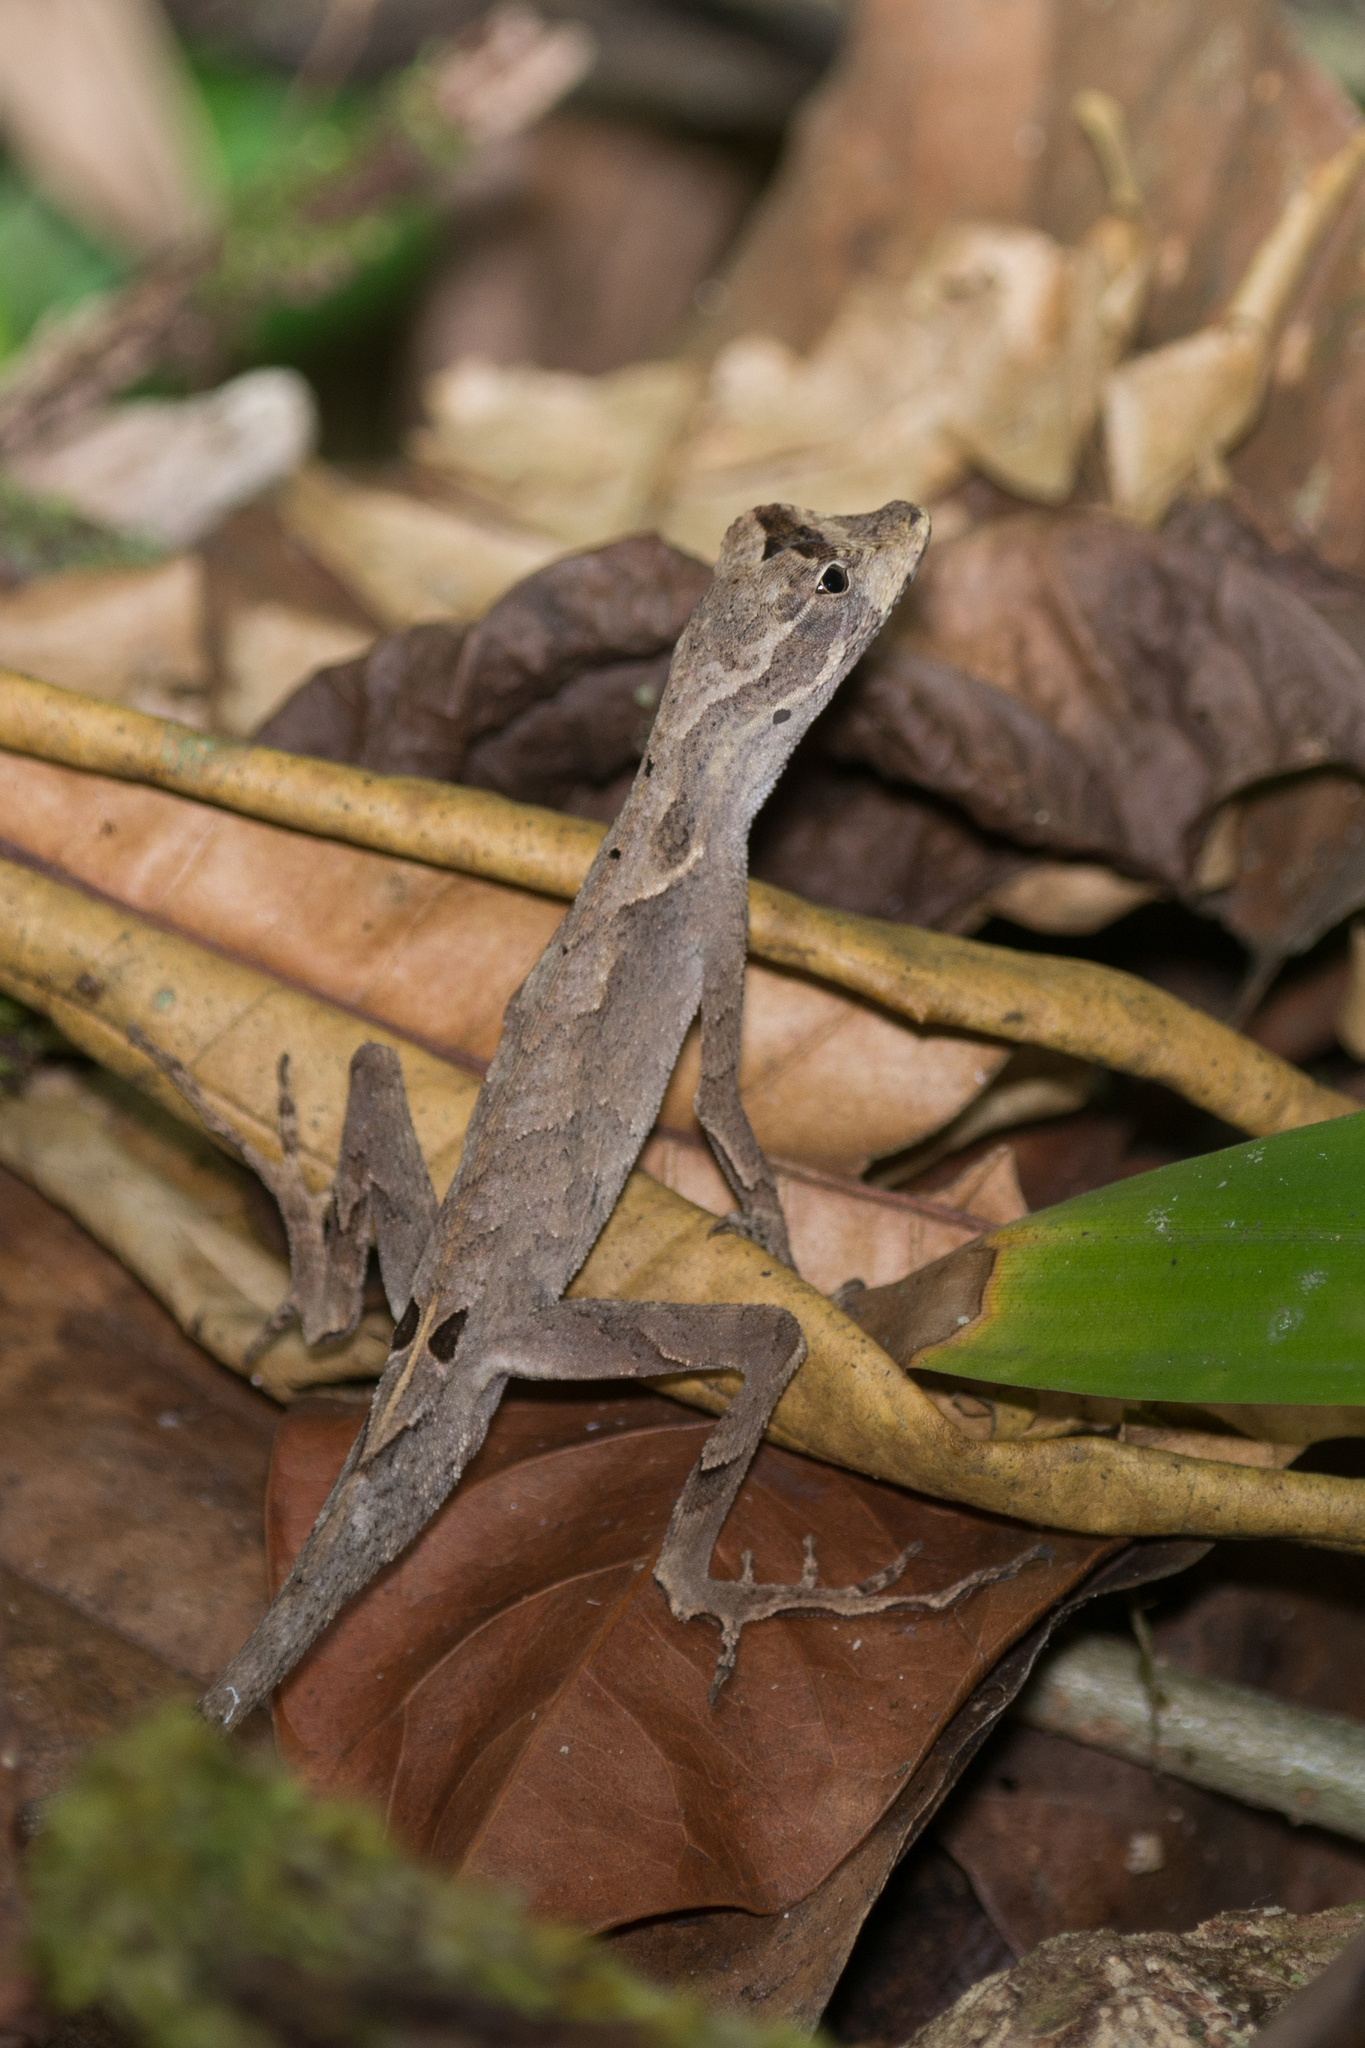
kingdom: Animalia
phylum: Chordata
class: Squamata
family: Dactyloidae
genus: Anolis
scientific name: Anolis planiceps
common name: Goldenscale anole
